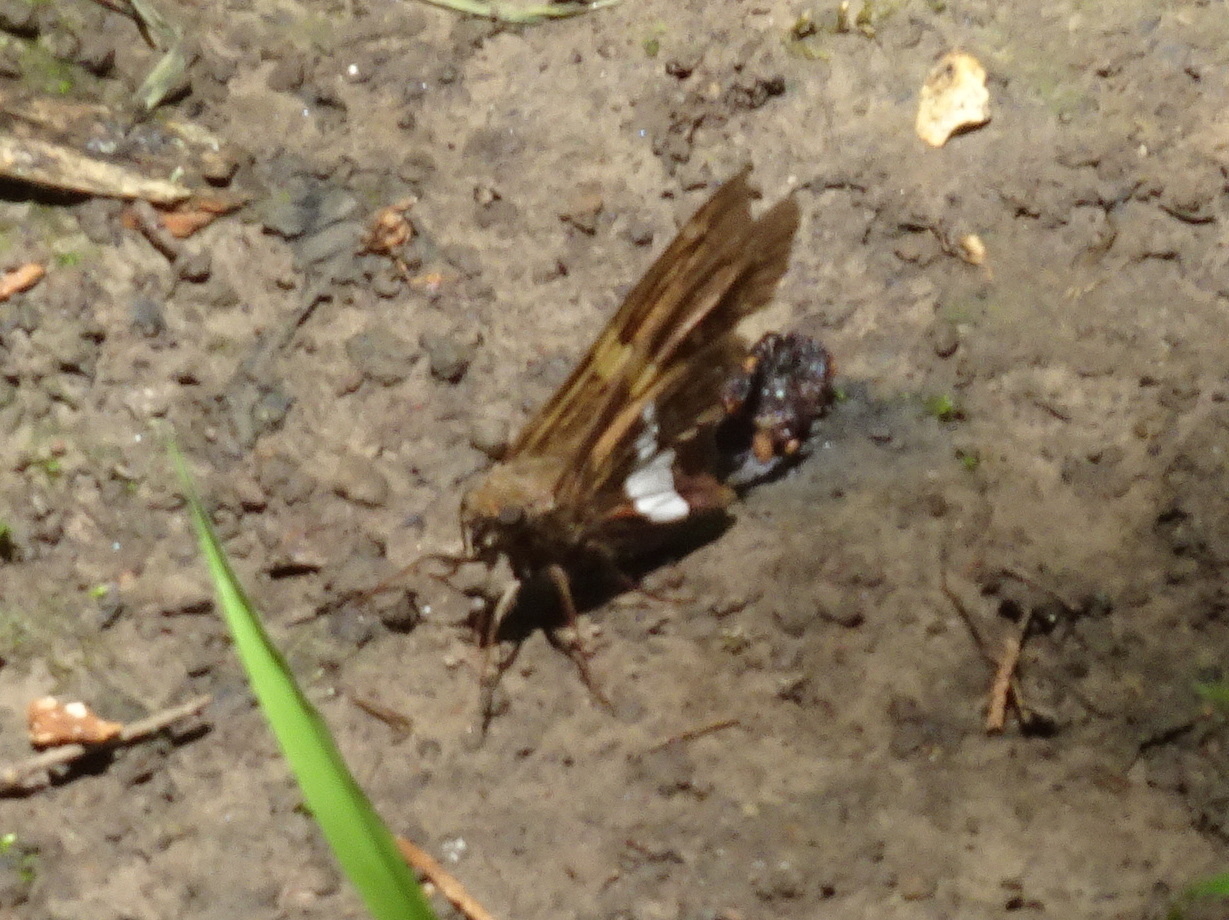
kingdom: Animalia
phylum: Arthropoda
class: Insecta
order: Lepidoptera
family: Hesperiidae
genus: Epargyreus
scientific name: Epargyreus clarus
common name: Silver-spotted skipper
